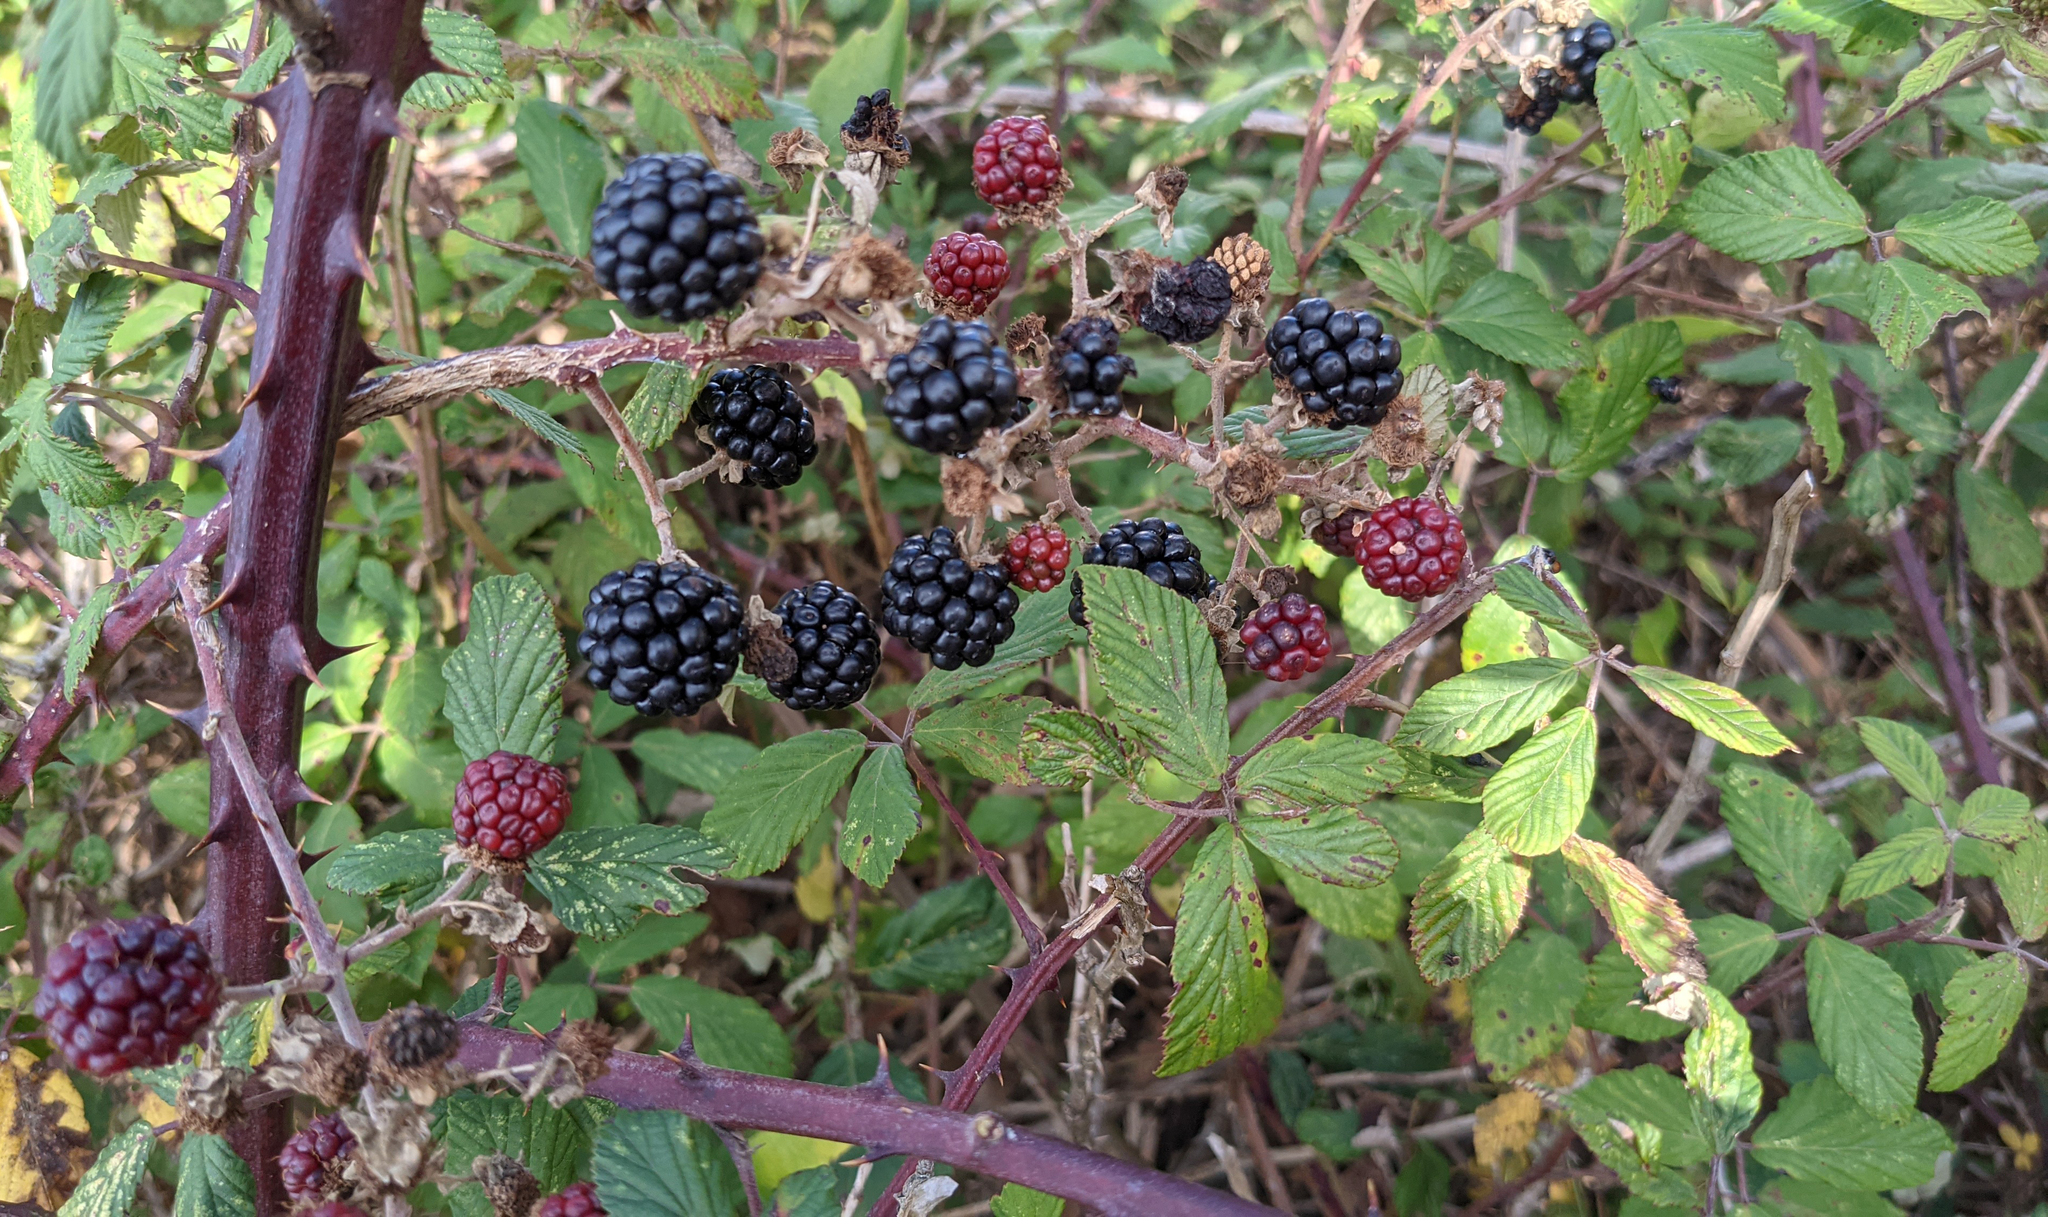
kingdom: Plantae
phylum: Tracheophyta
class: Magnoliopsida
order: Rosales
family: Rosaceae
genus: Rubus
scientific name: Rubus ulmifolius
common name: Elmleaf blackberry
